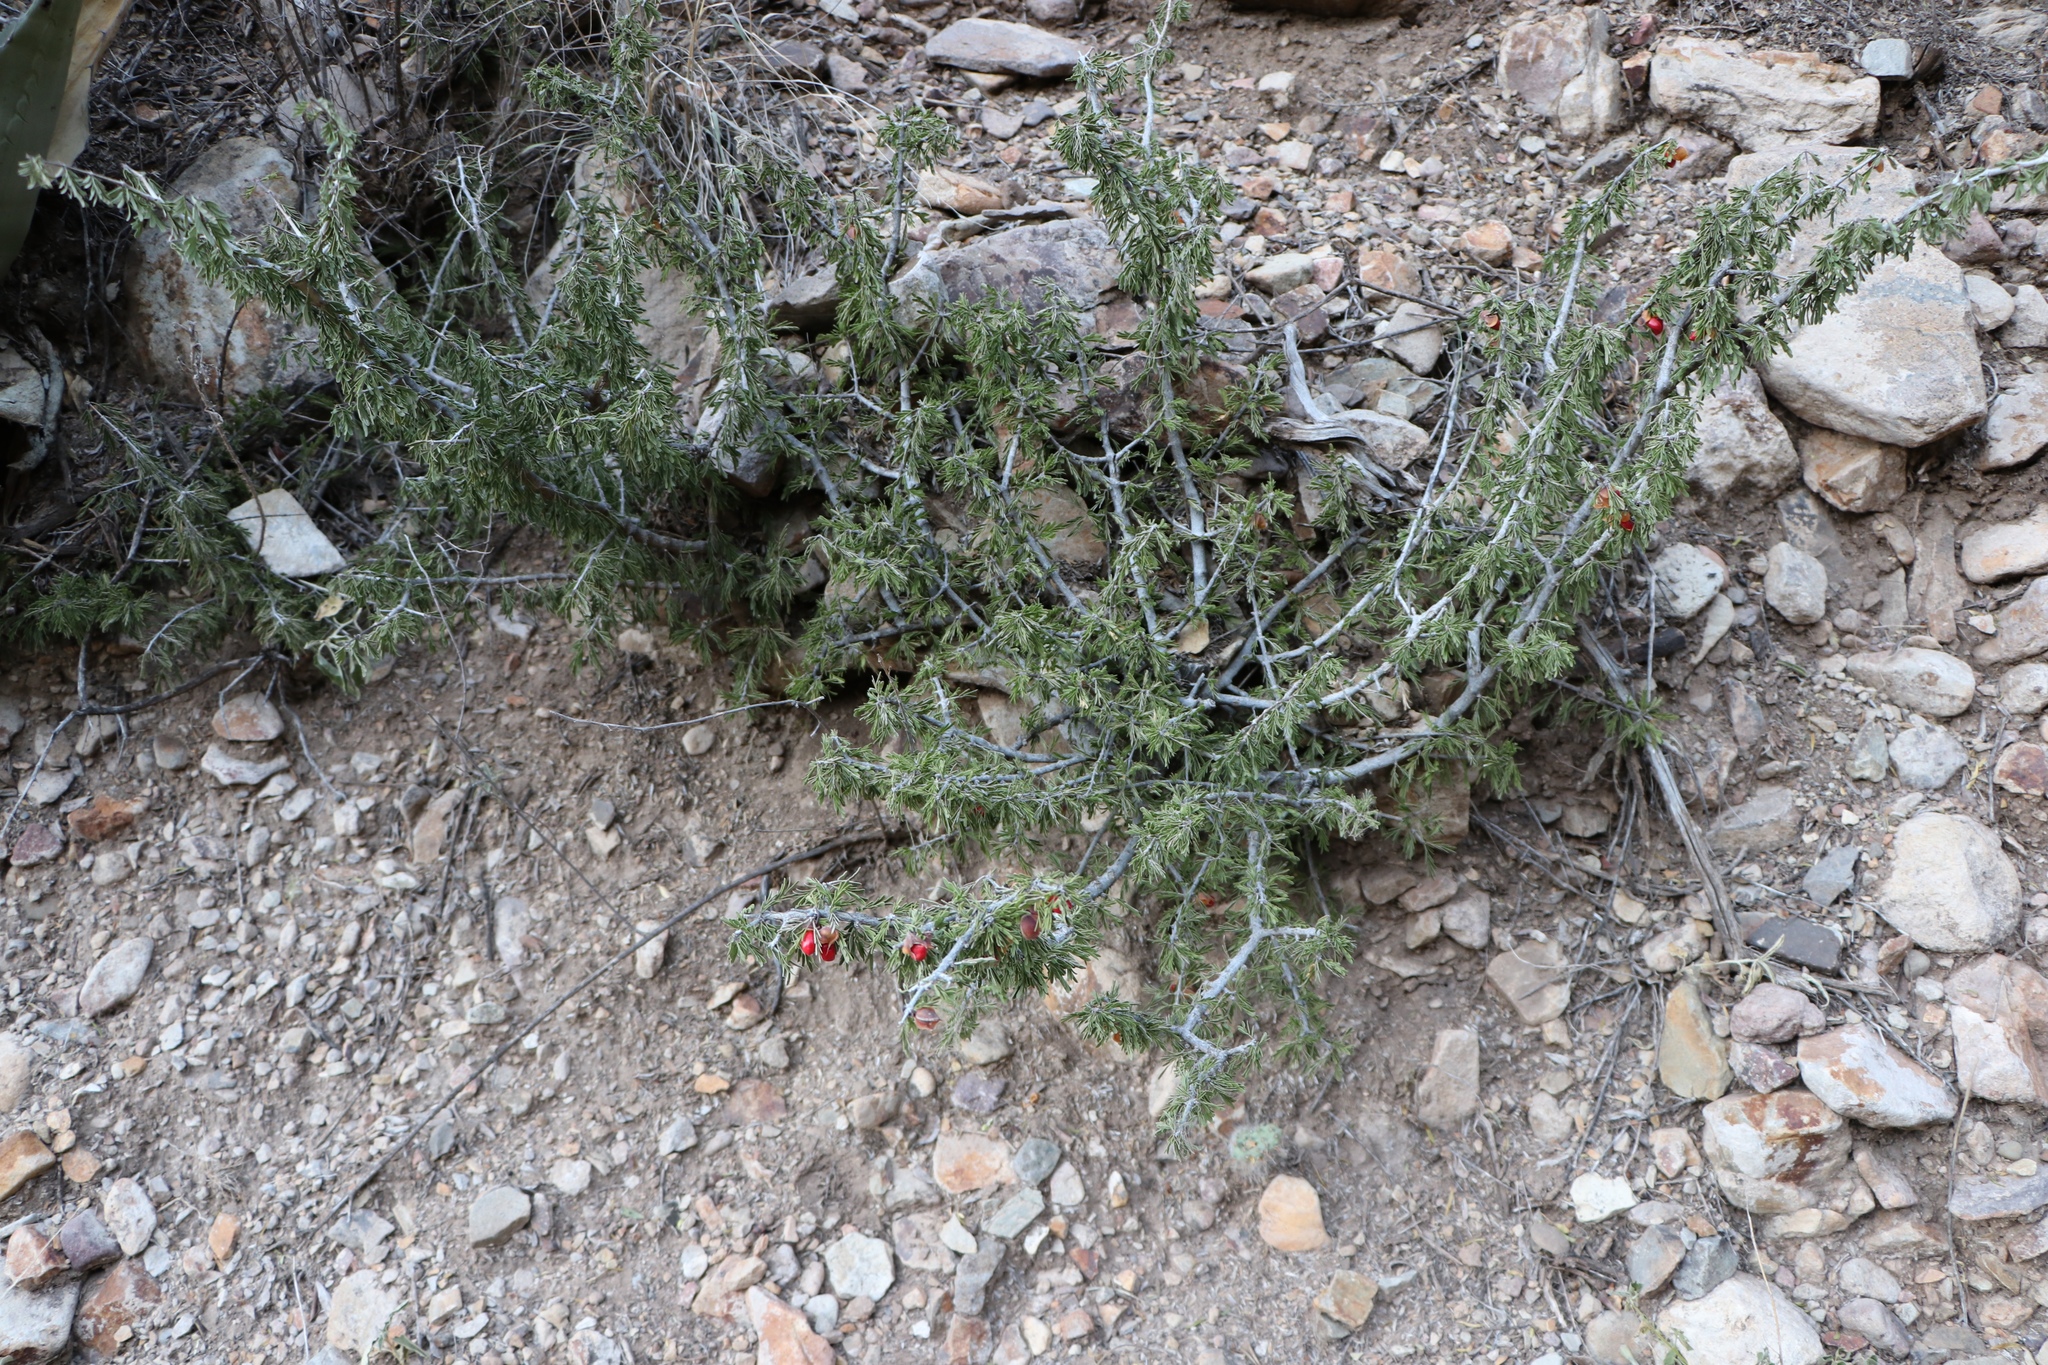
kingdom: Plantae
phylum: Tracheophyta
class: Magnoliopsida
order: Zygophyllales
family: Zygophyllaceae
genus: Porlieria
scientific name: Porlieria angustifolia
